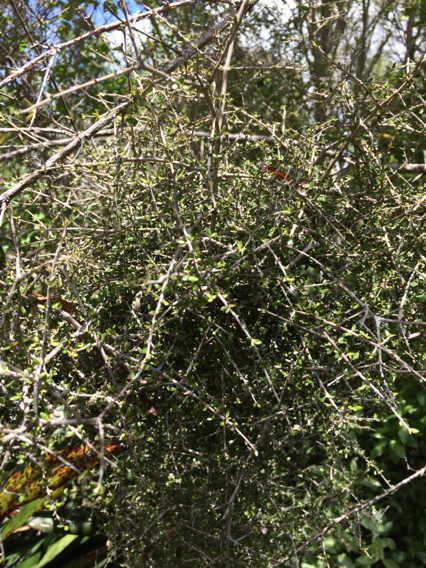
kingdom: Plantae
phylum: Tracheophyta
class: Magnoliopsida
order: Gentianales
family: Rubiaceae
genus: Coprosma
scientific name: Coprosma obconica
